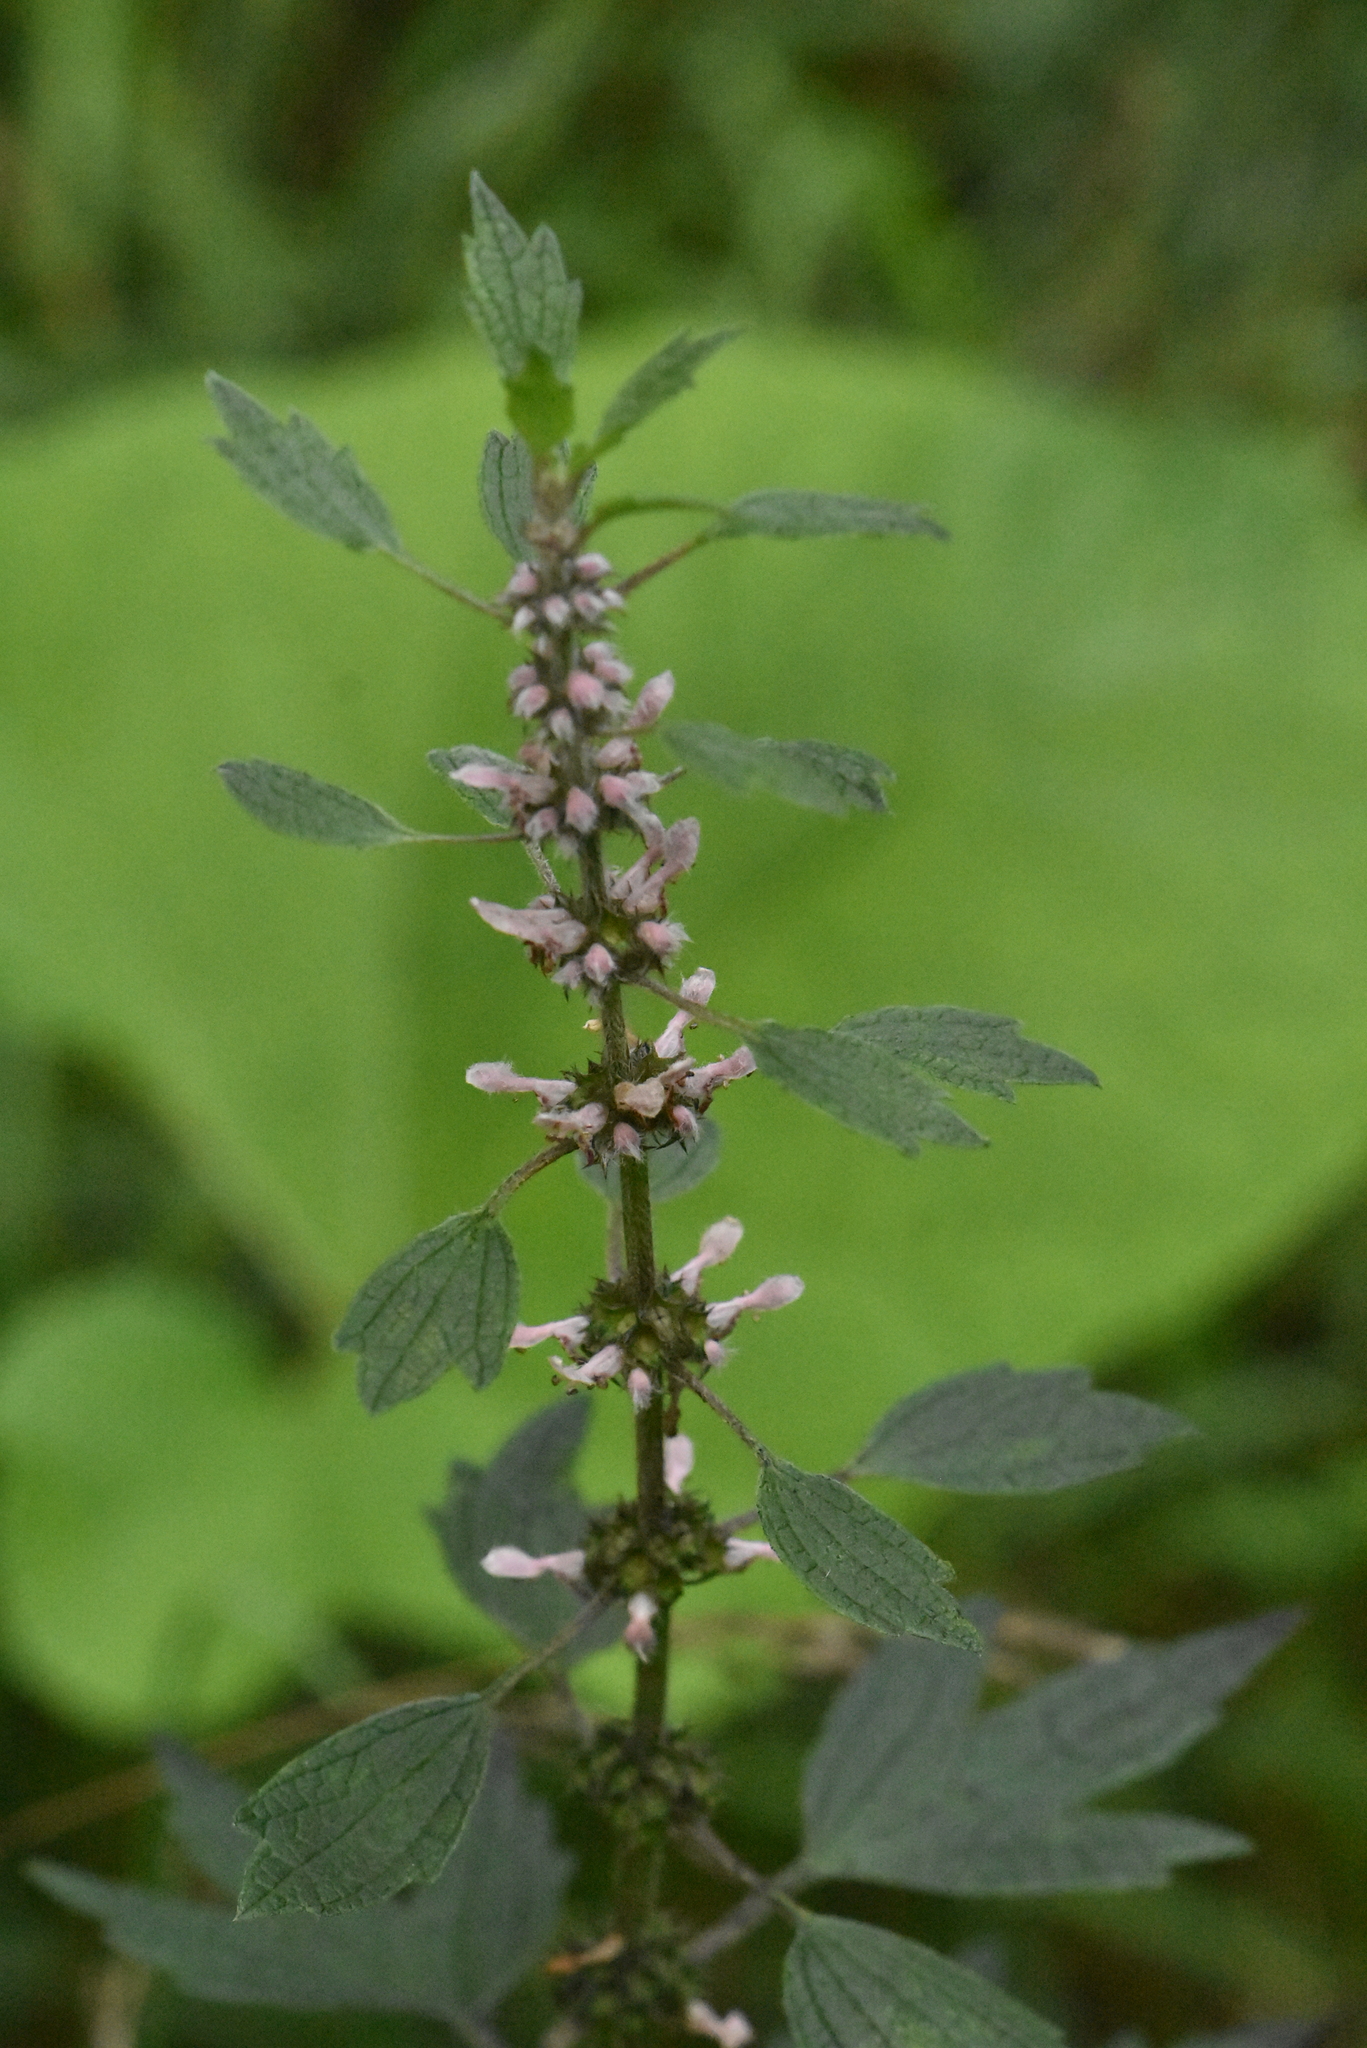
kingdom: Plantae
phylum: Tracheophyta
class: Magnoliopsida
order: Lamiales
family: Lamiaceae
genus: Leonurus
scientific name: Leonurus quinquelobatus
